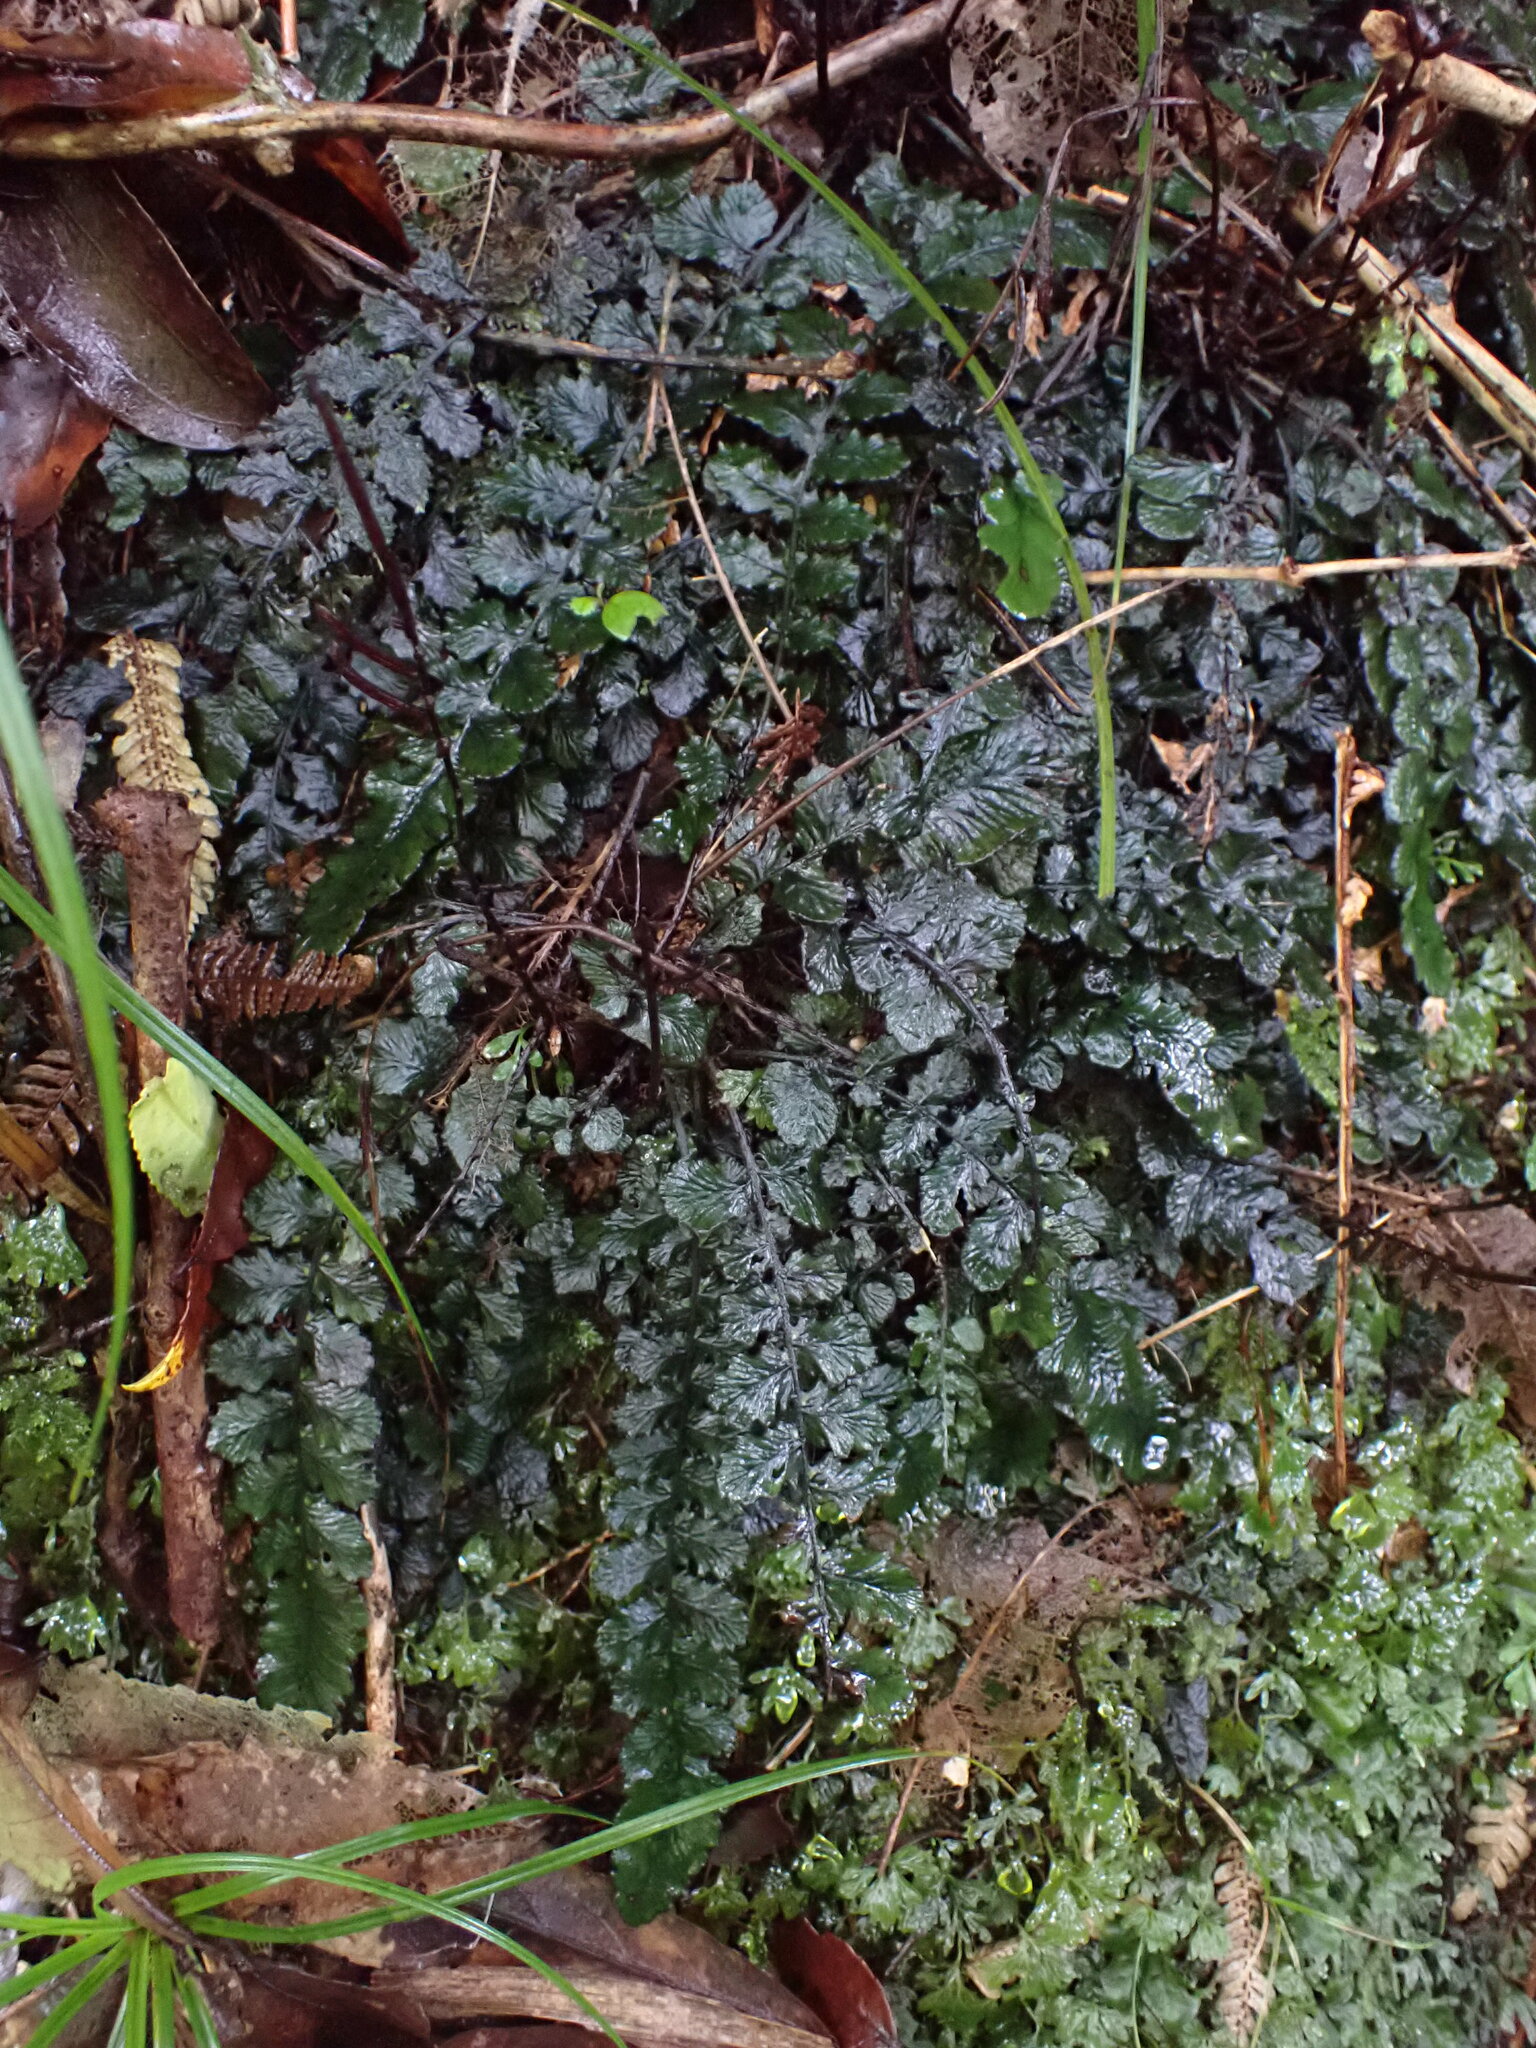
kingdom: Plantae
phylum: Tracheophyta
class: Polypodiopsida
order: Polypodiales
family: Blechnaceae
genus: Cranfillia
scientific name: Cranfillia nigra
